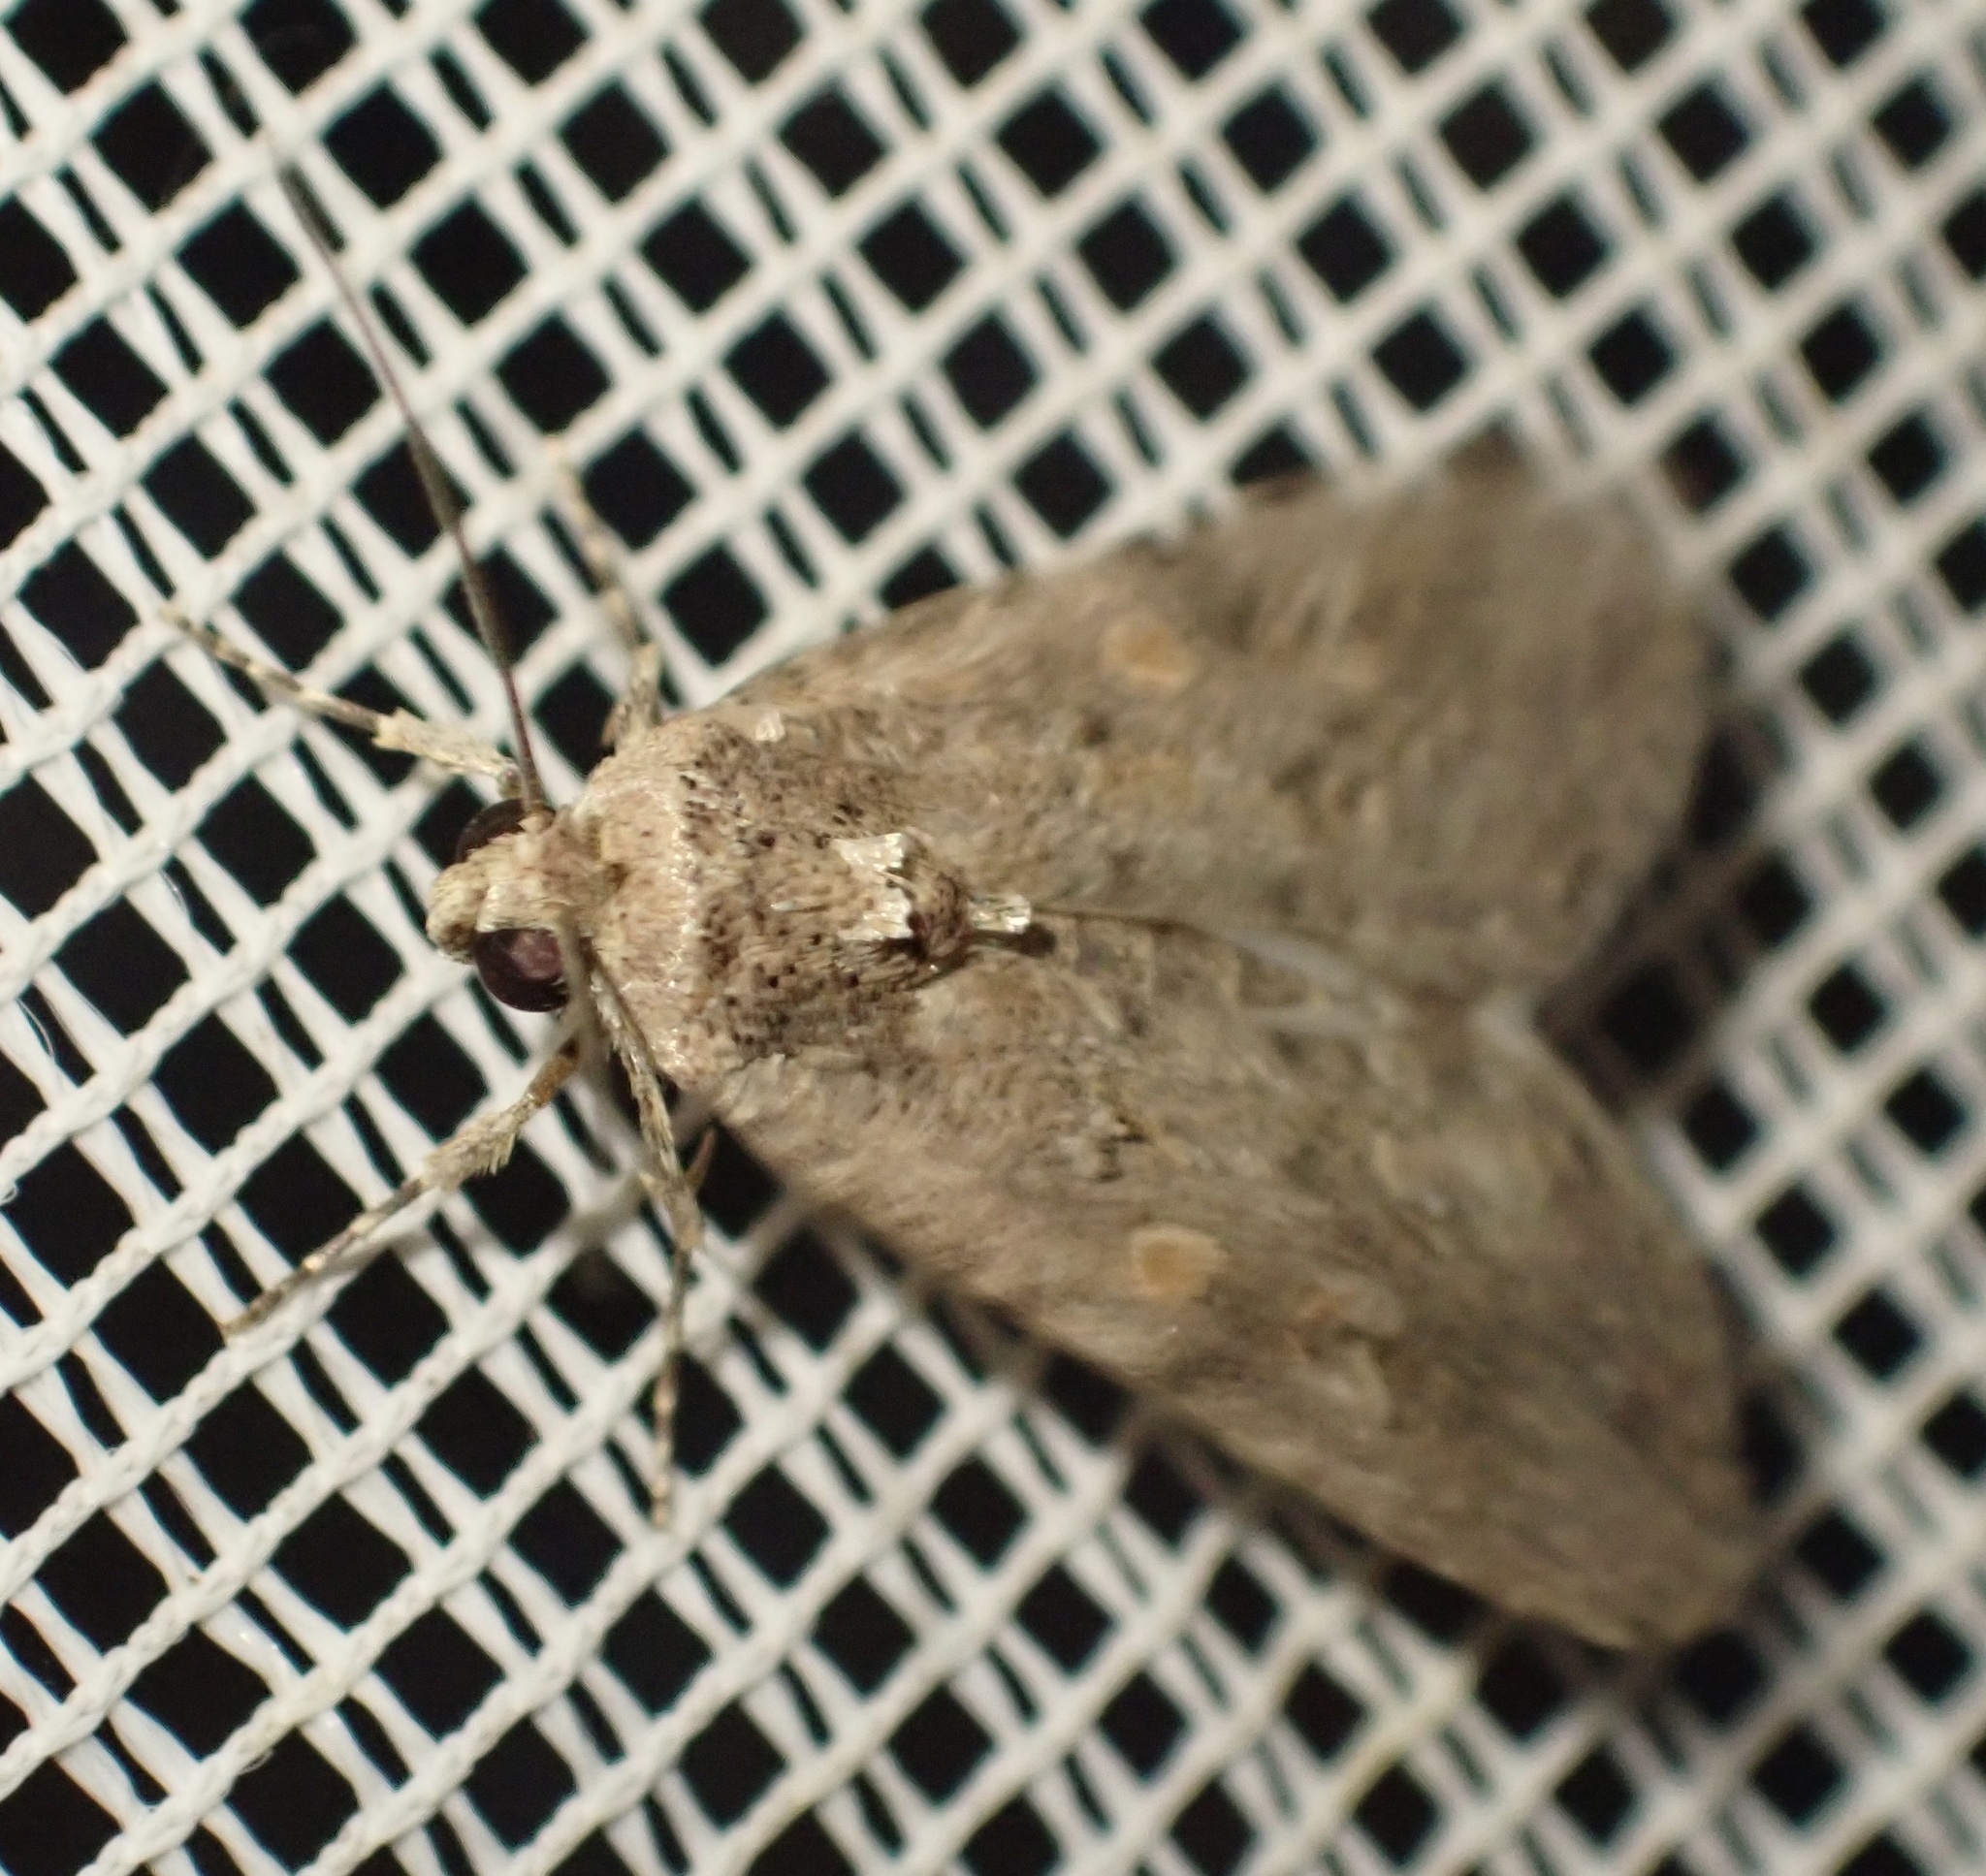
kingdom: Animalia
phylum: Arthropoda
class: Insecta
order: Lepidoptera
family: Noctuidae
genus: Spodoptera
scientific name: Spodoptera exigua
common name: Beet armyworm
